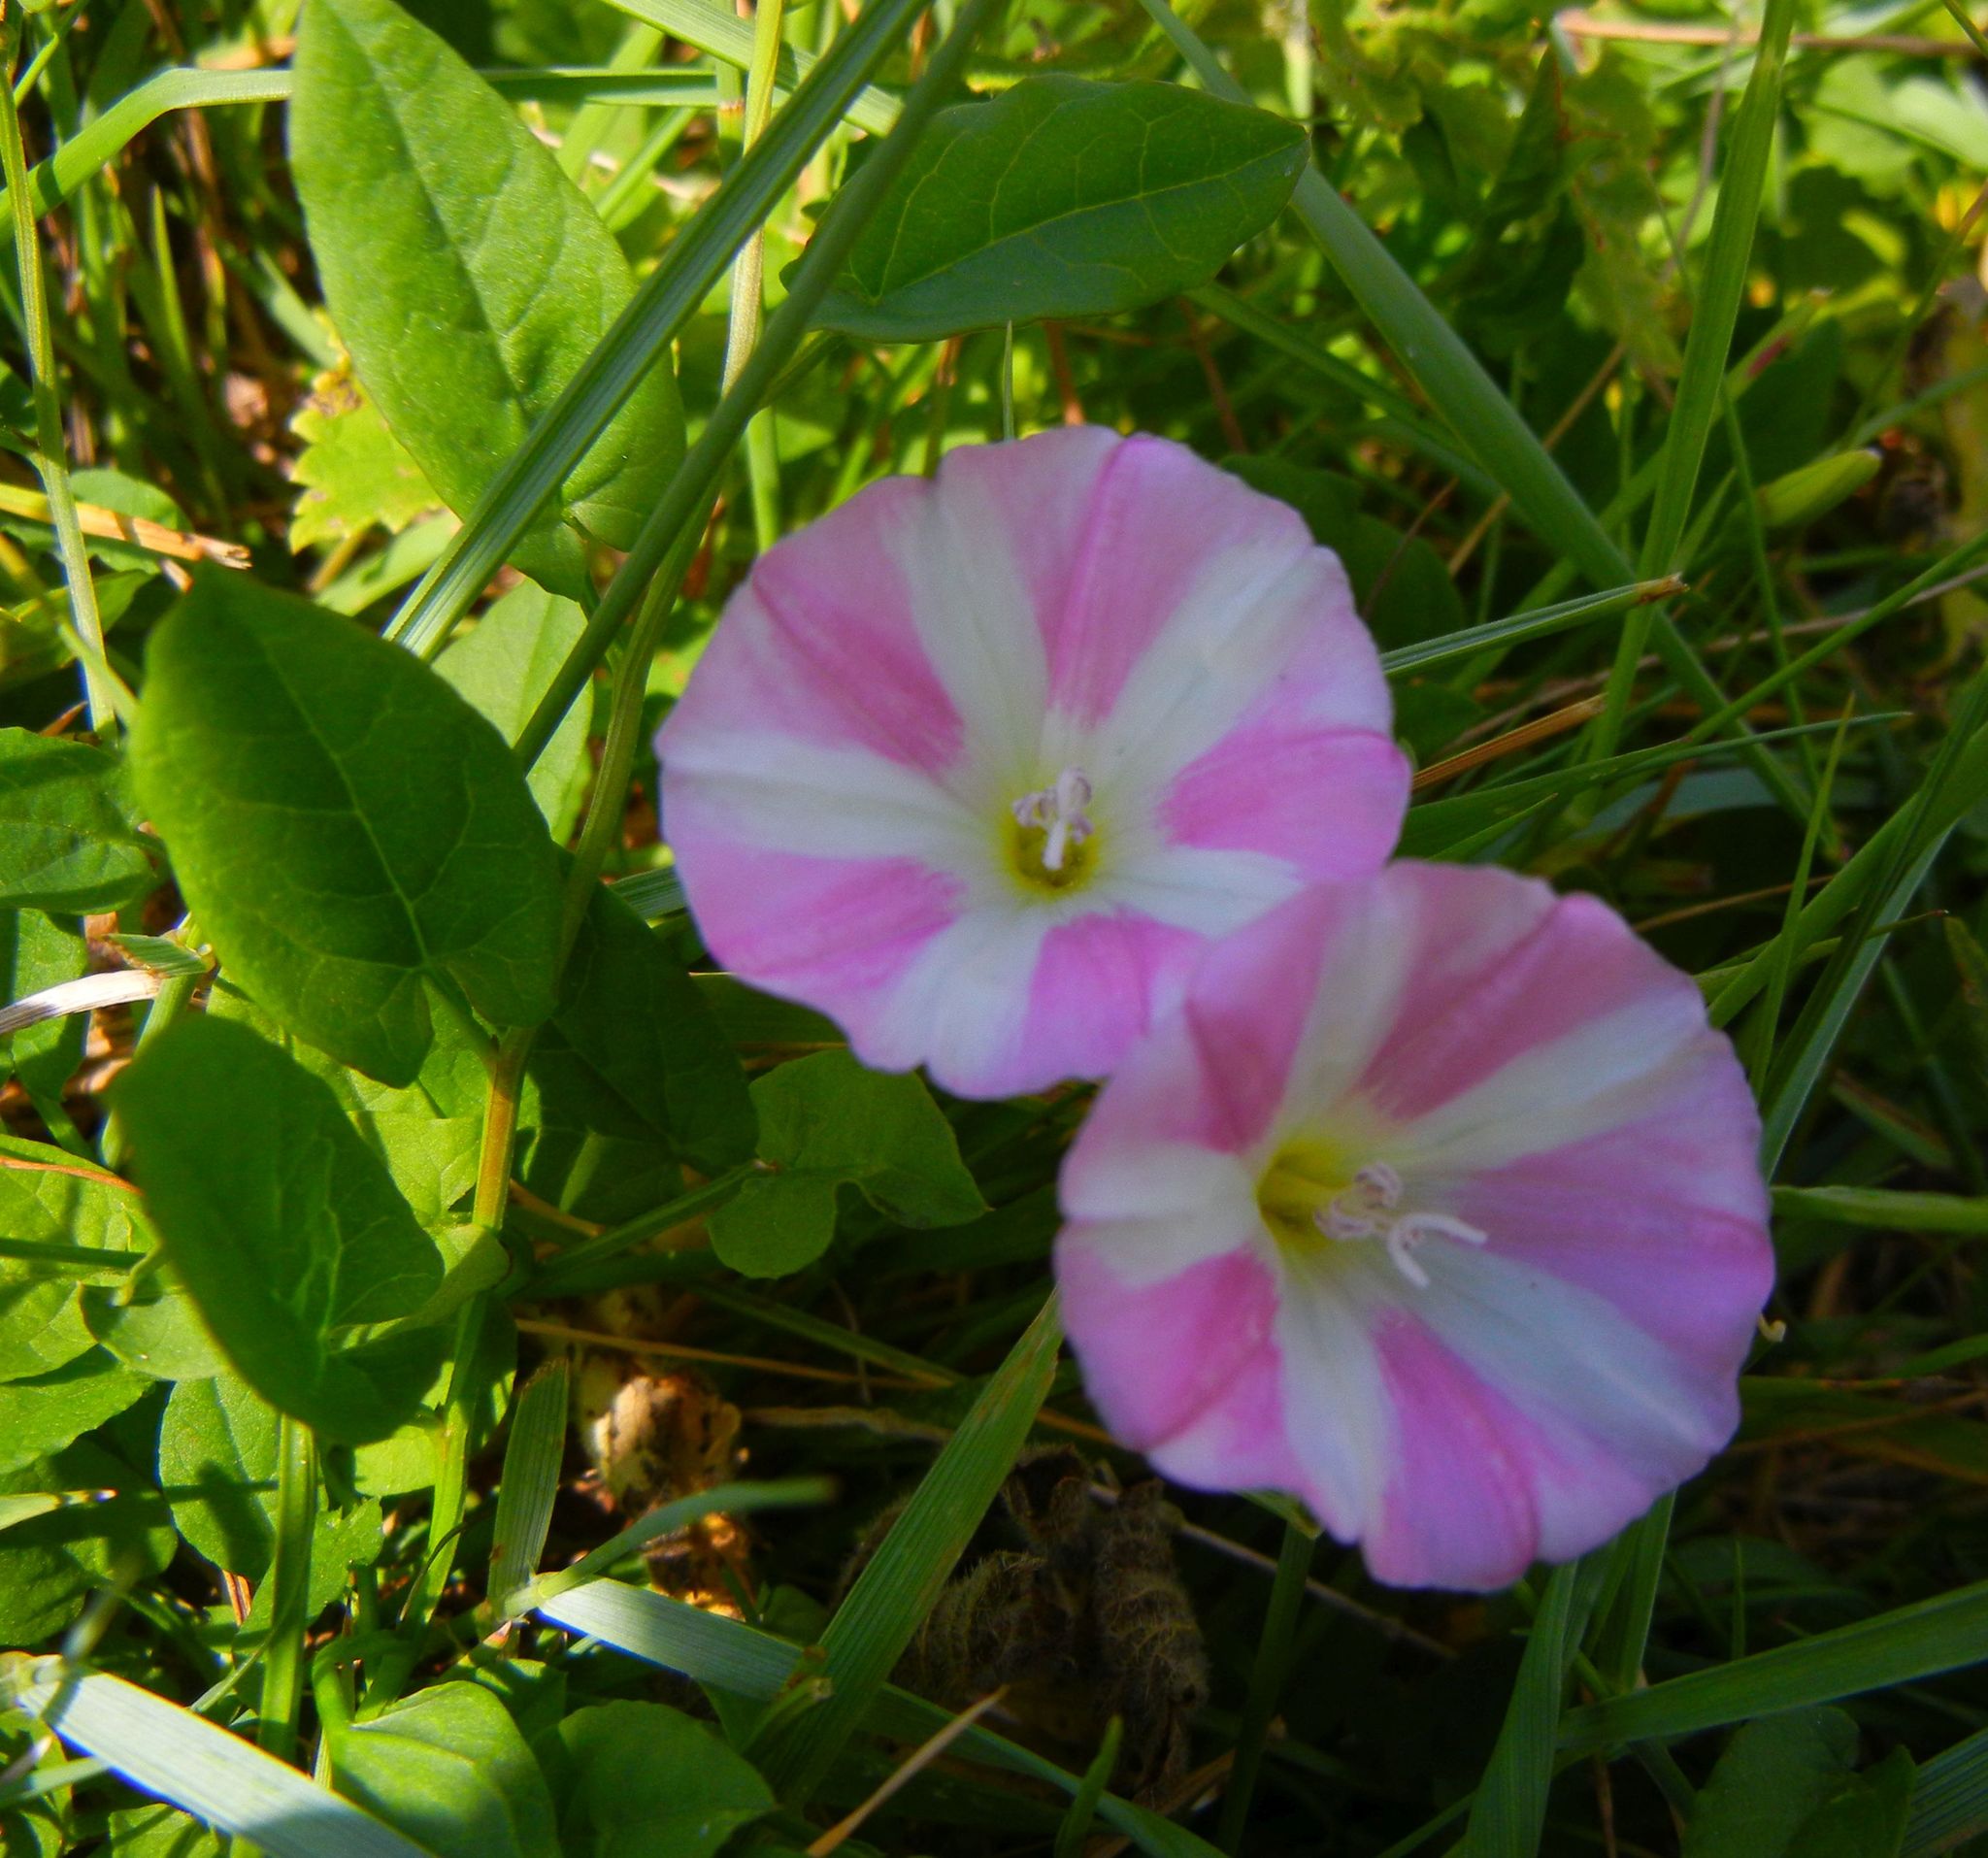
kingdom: Plantae
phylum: Tracheophyta
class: Magnoliopsida
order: Solanales
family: Convolvulaceae
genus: Convolvulus
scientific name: Convolvulus arvensis
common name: Field bindweed
